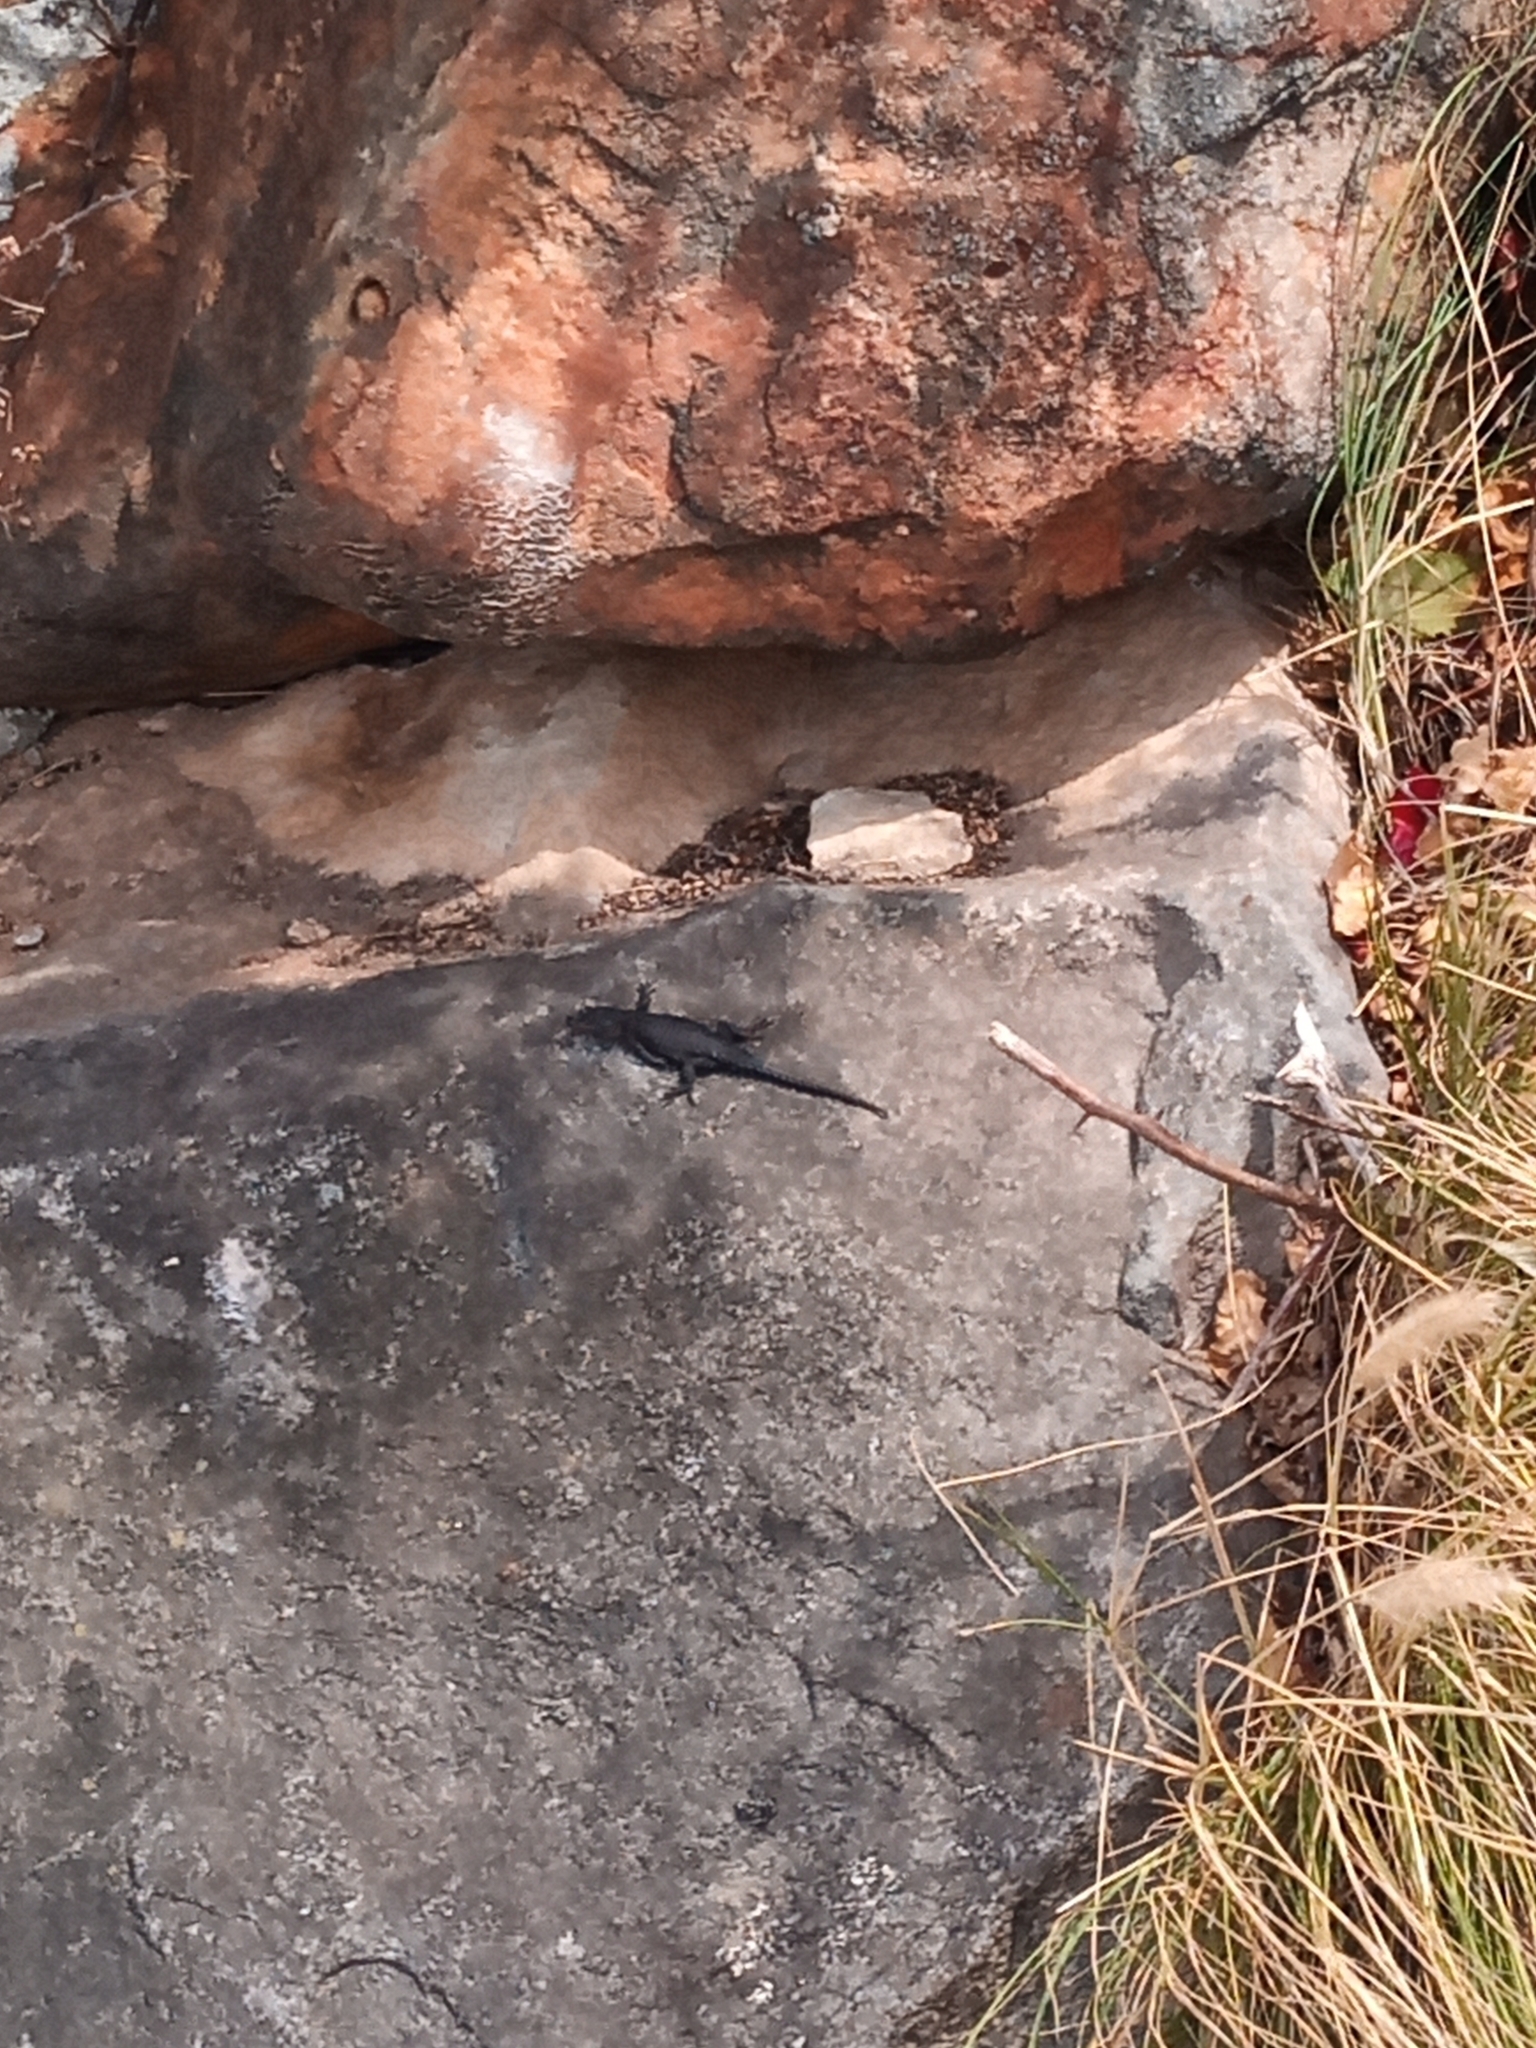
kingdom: Animalia
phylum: Chordata
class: Squamata
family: Cordylidae
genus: Cordylus
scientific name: Cordylus niger
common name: Black girdled lizard
